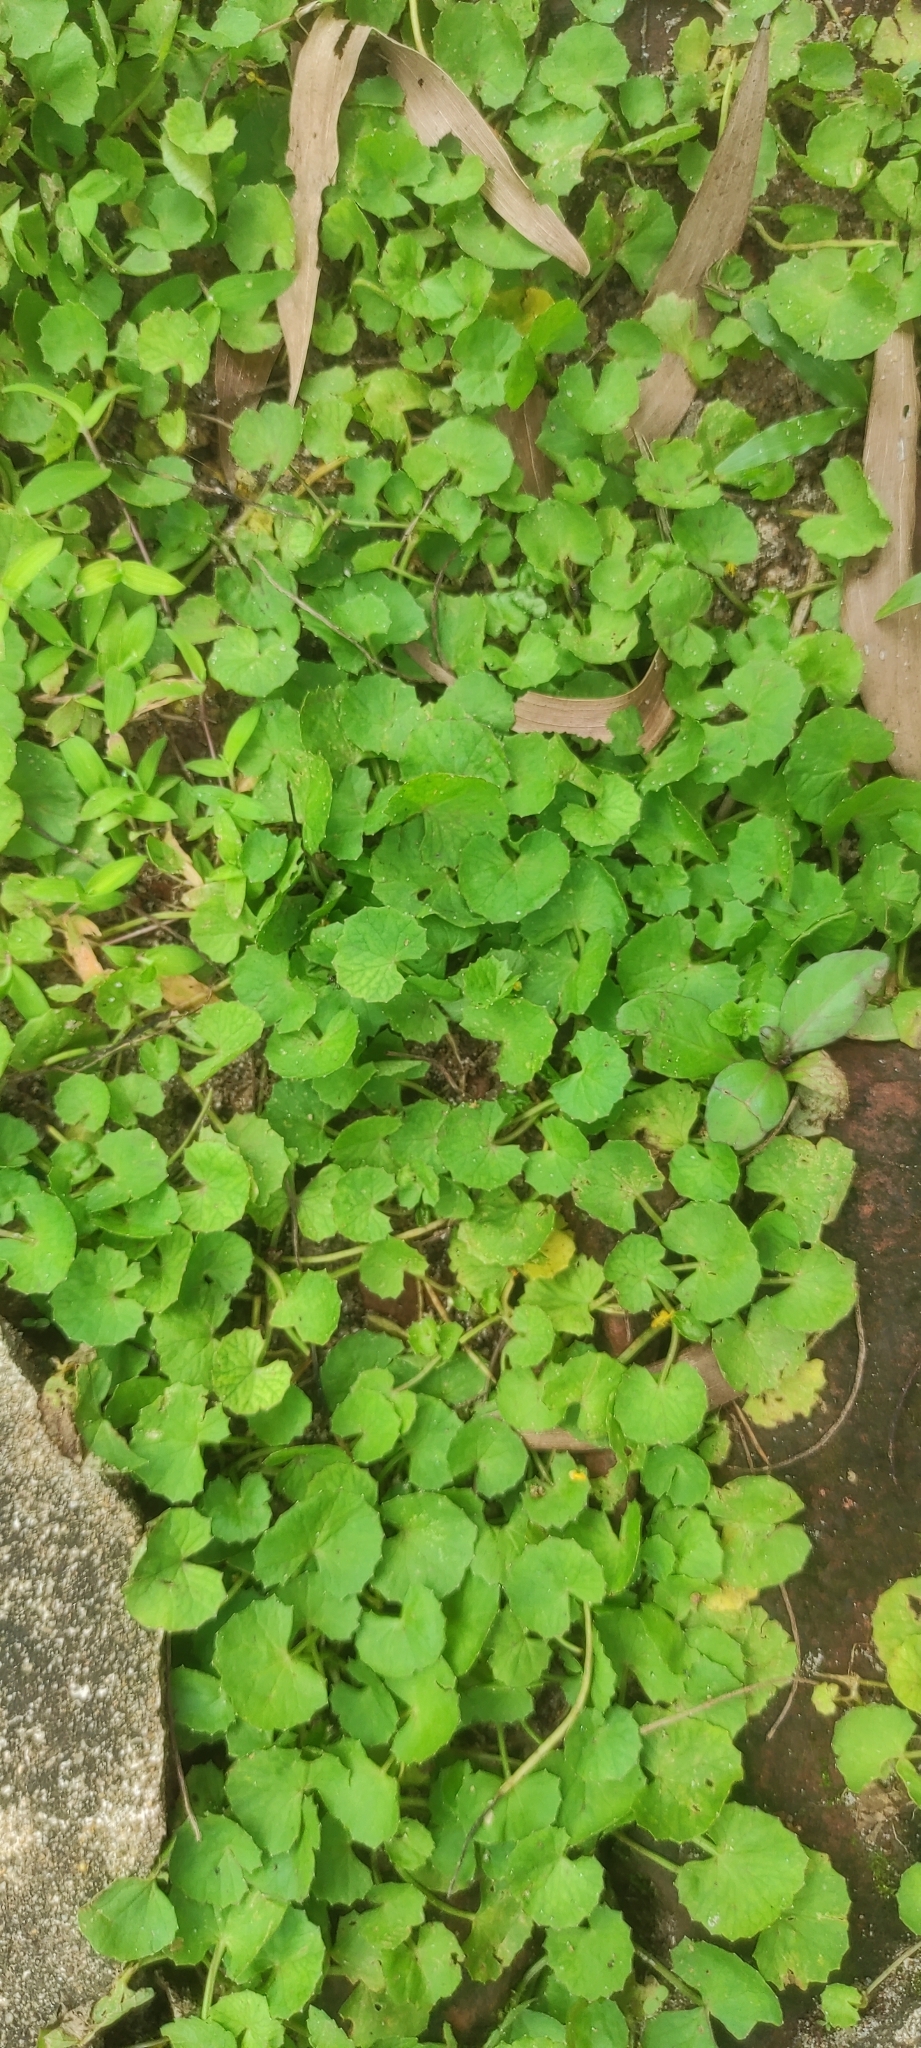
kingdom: Plantae
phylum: Tracheophyta
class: Magnoliopsida
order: Apiales
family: Apiaceae
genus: Centella
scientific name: Centella asiatica
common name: Spadeleaf
